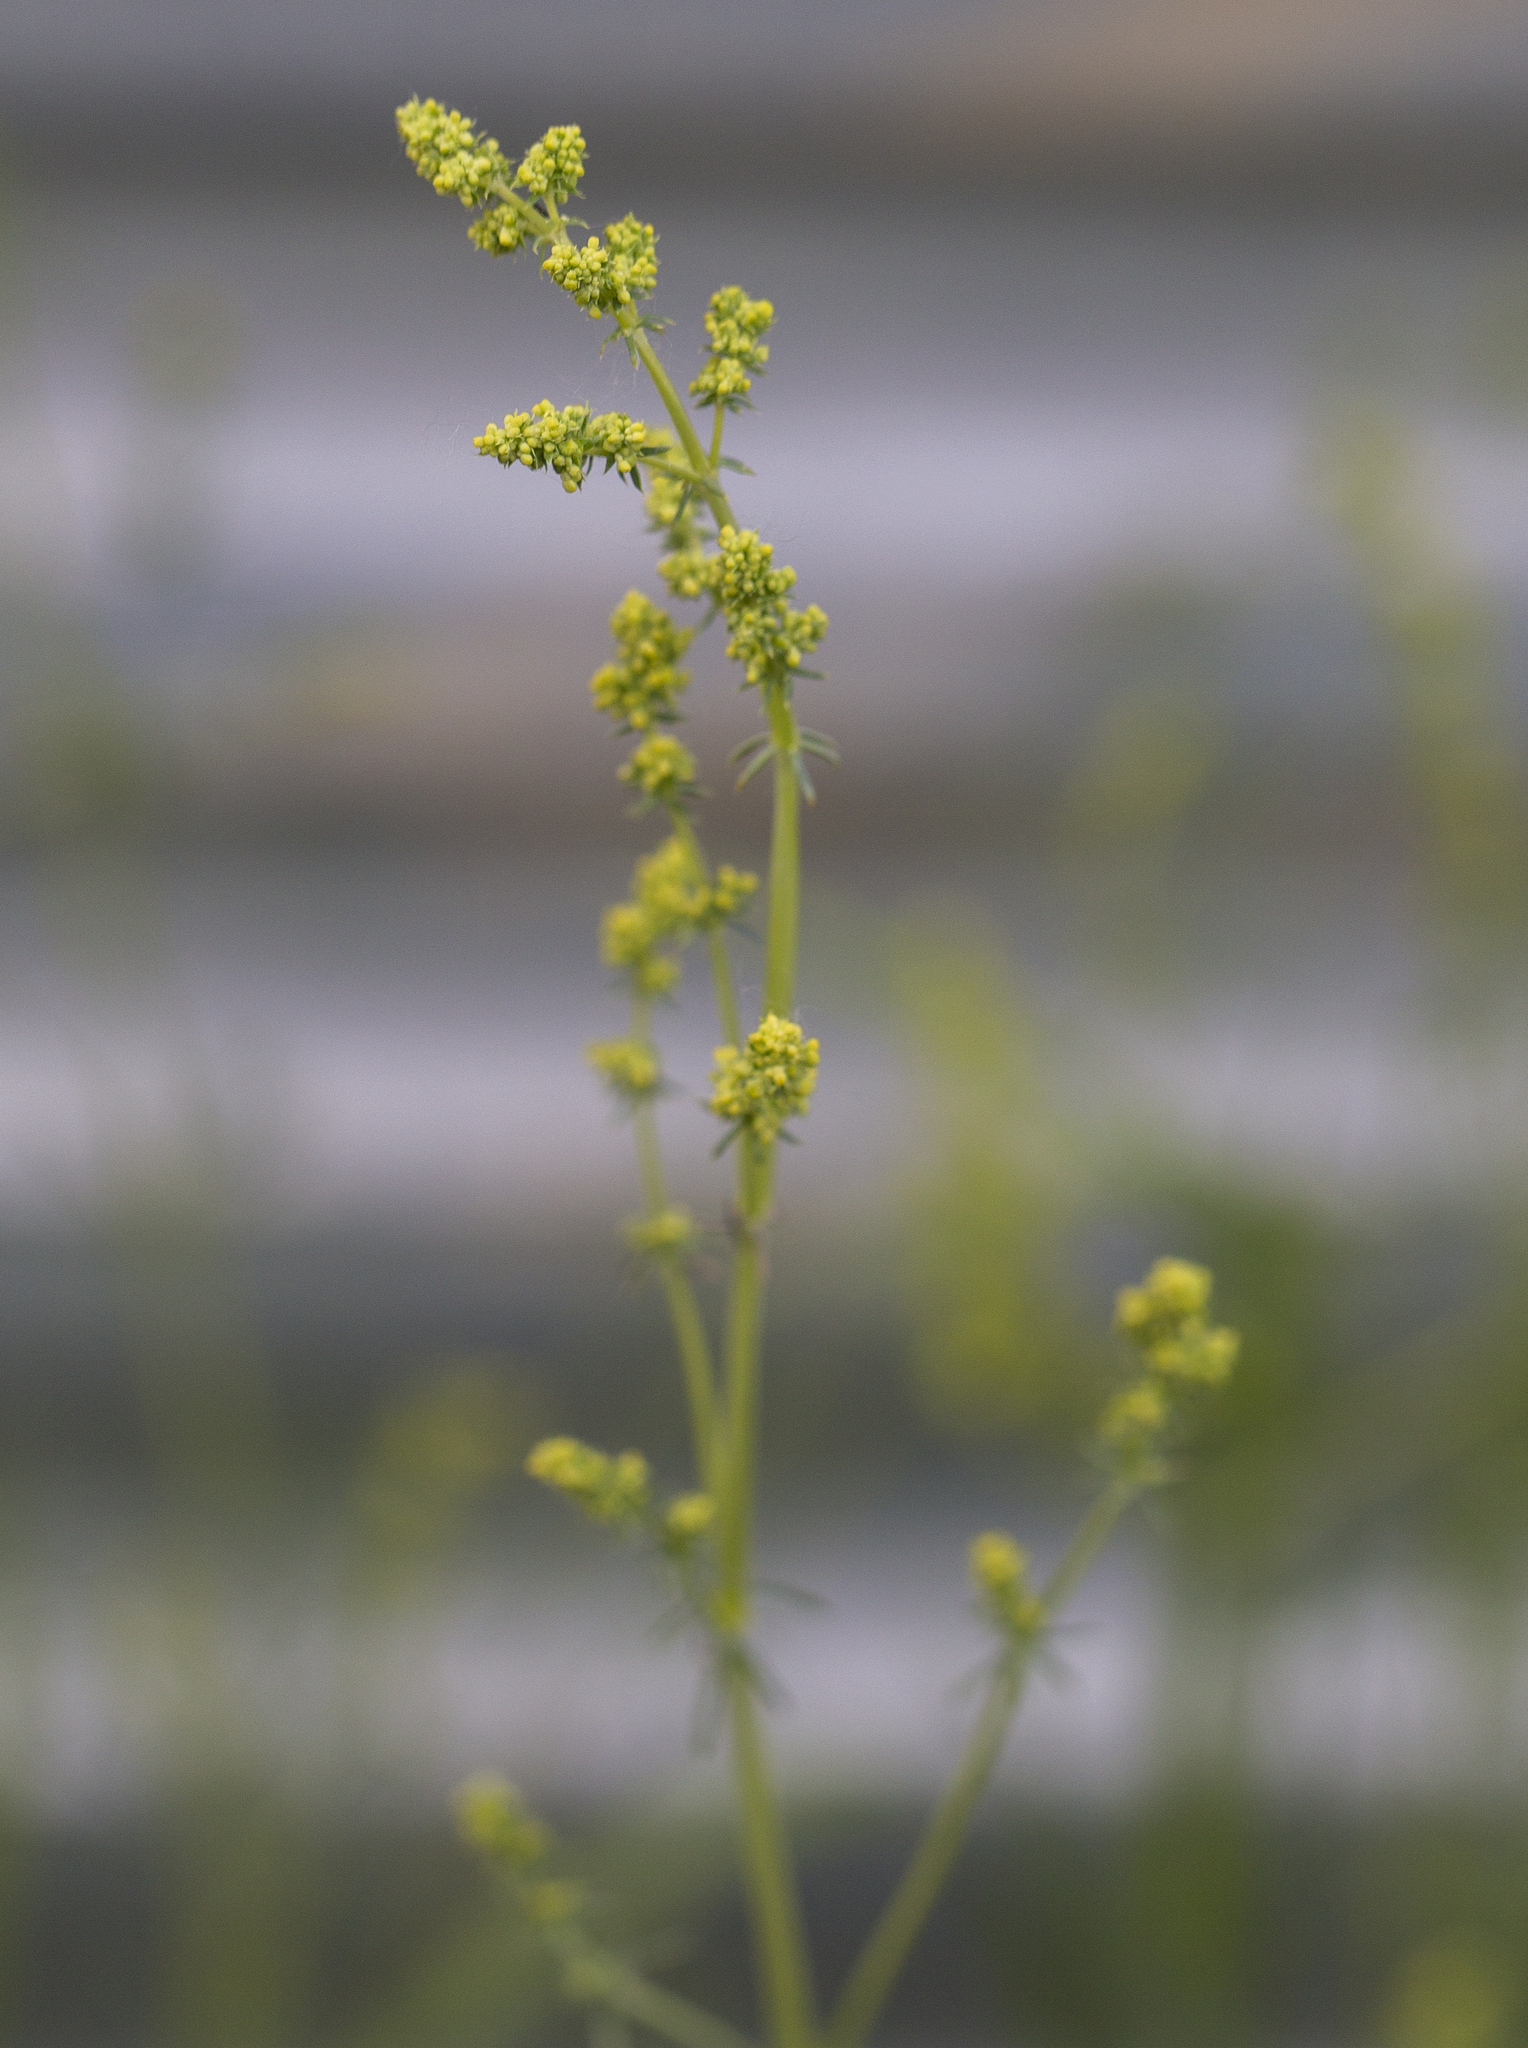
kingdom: Plantae
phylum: Tracheophyta
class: Magnoliopsida
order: Gentianales
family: Rubiaceae
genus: Galium
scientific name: Galium verum
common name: Lady's bedstraw
